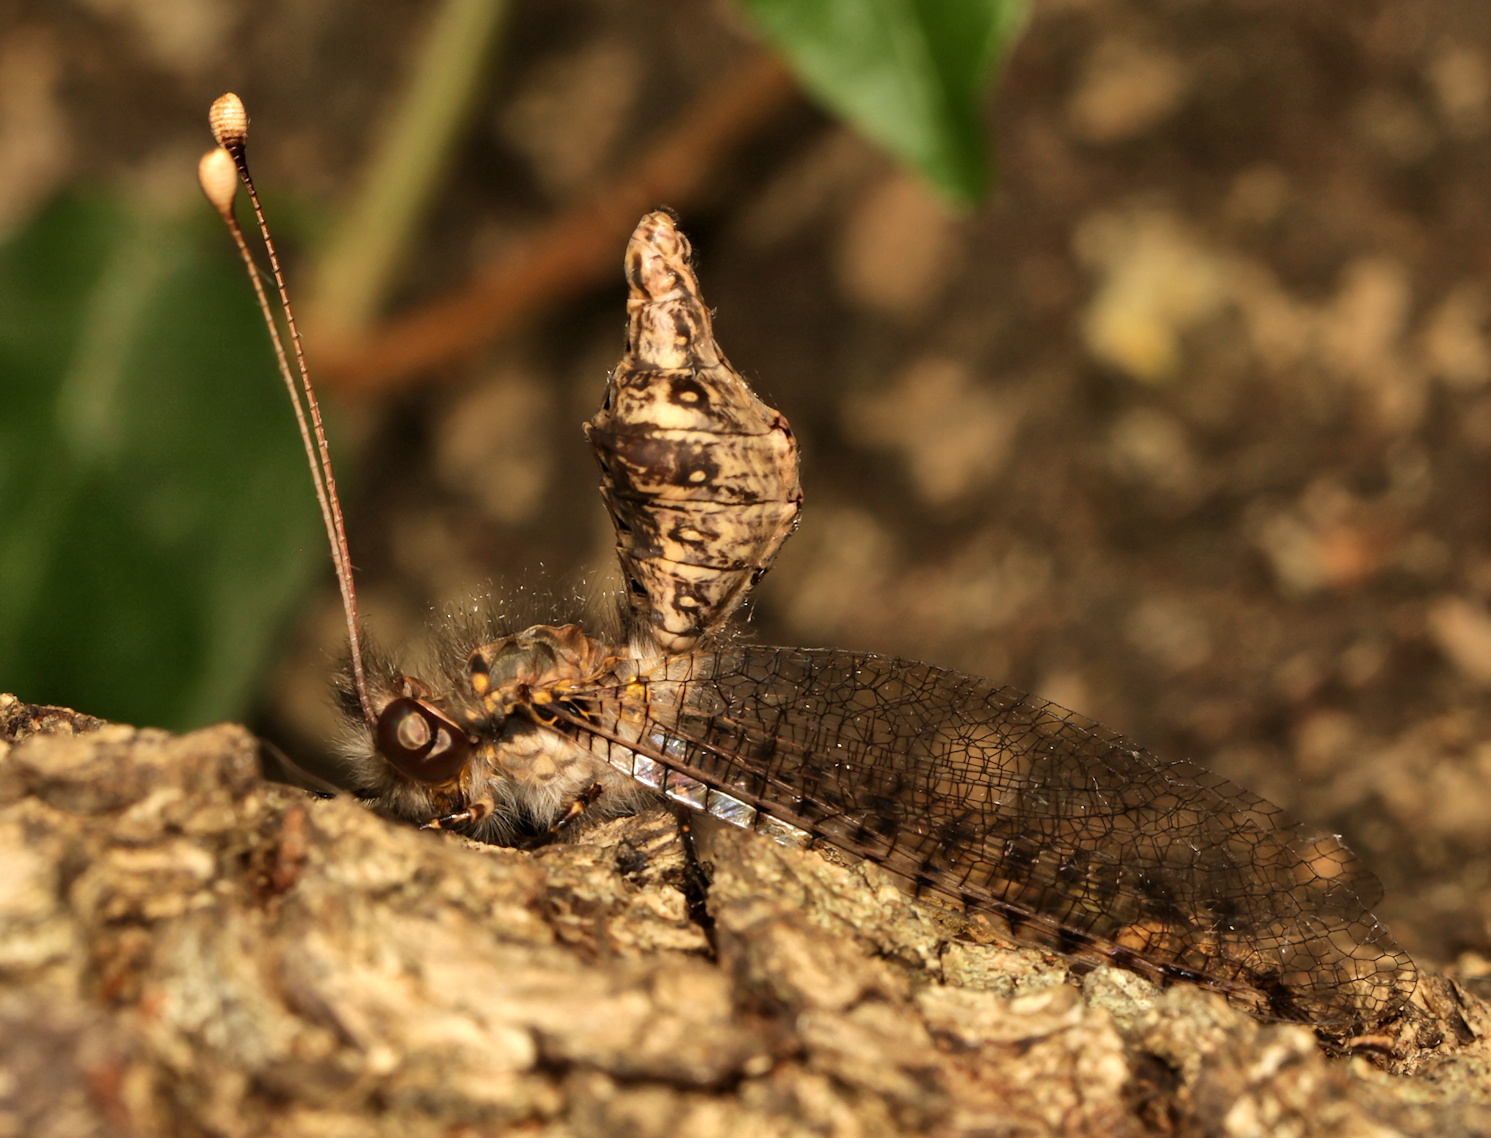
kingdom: Animalia
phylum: Arthropoda
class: Insecta
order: Neuroptera
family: Ascalaphidae
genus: Proctarrelabis
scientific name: Proctarrelabis involvens
